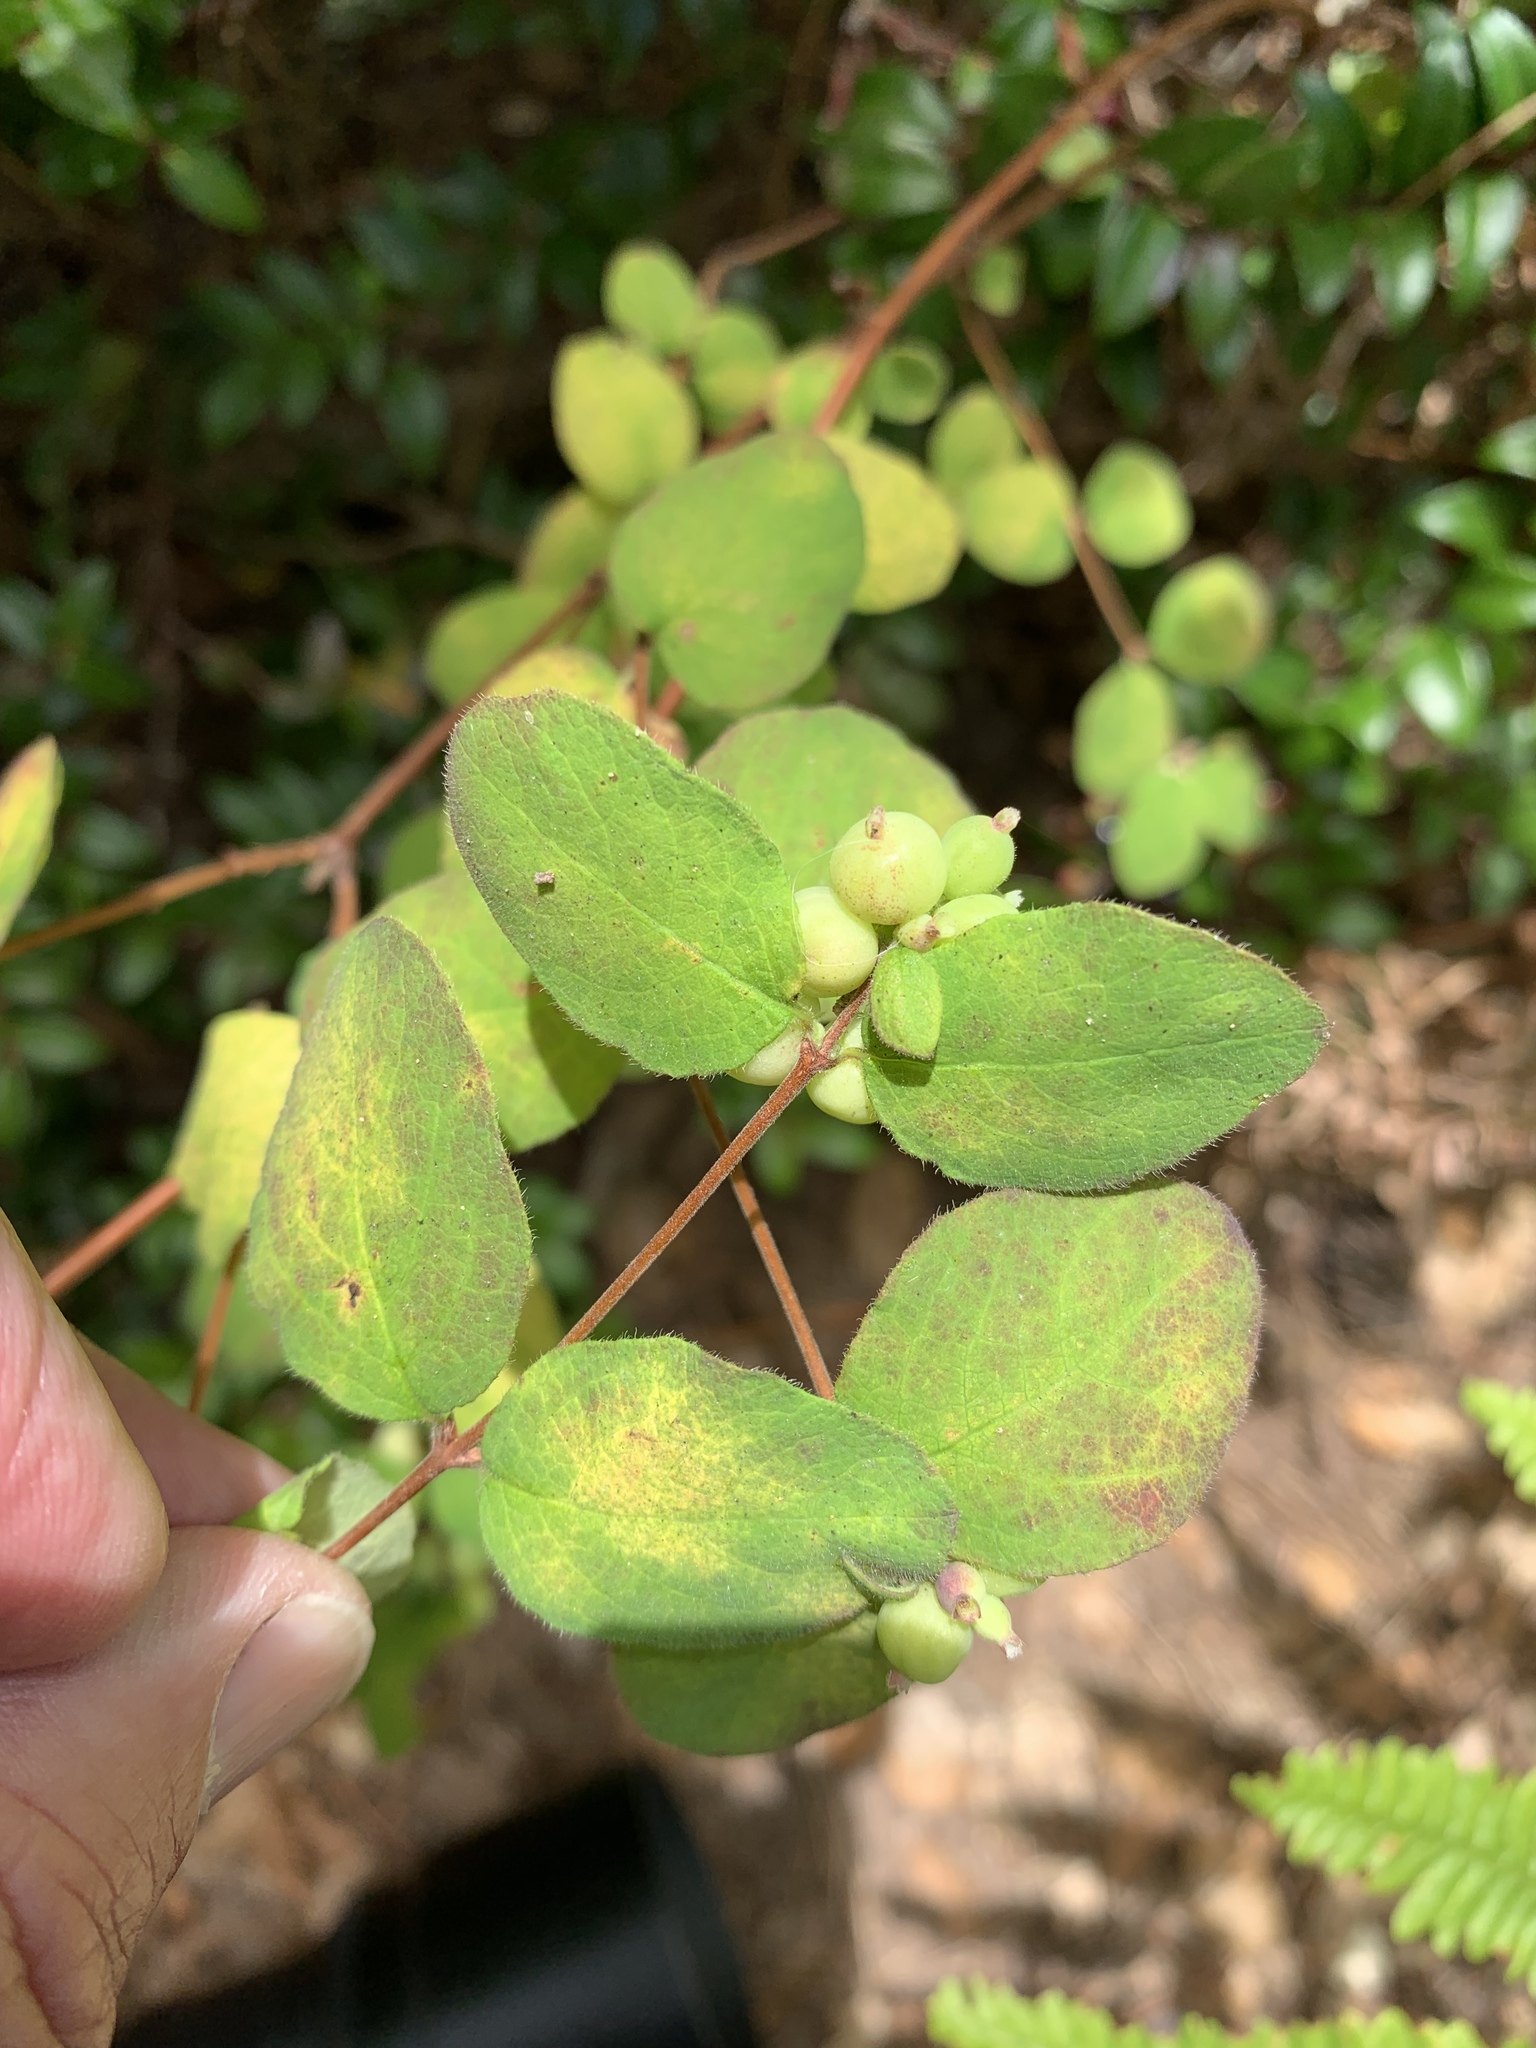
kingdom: Plantae
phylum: Tracheophyta
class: Magnoliopsida
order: Dipsacales
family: Caprifoliaceae
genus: Symphoricarpos
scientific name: Symphoricarpos albus
